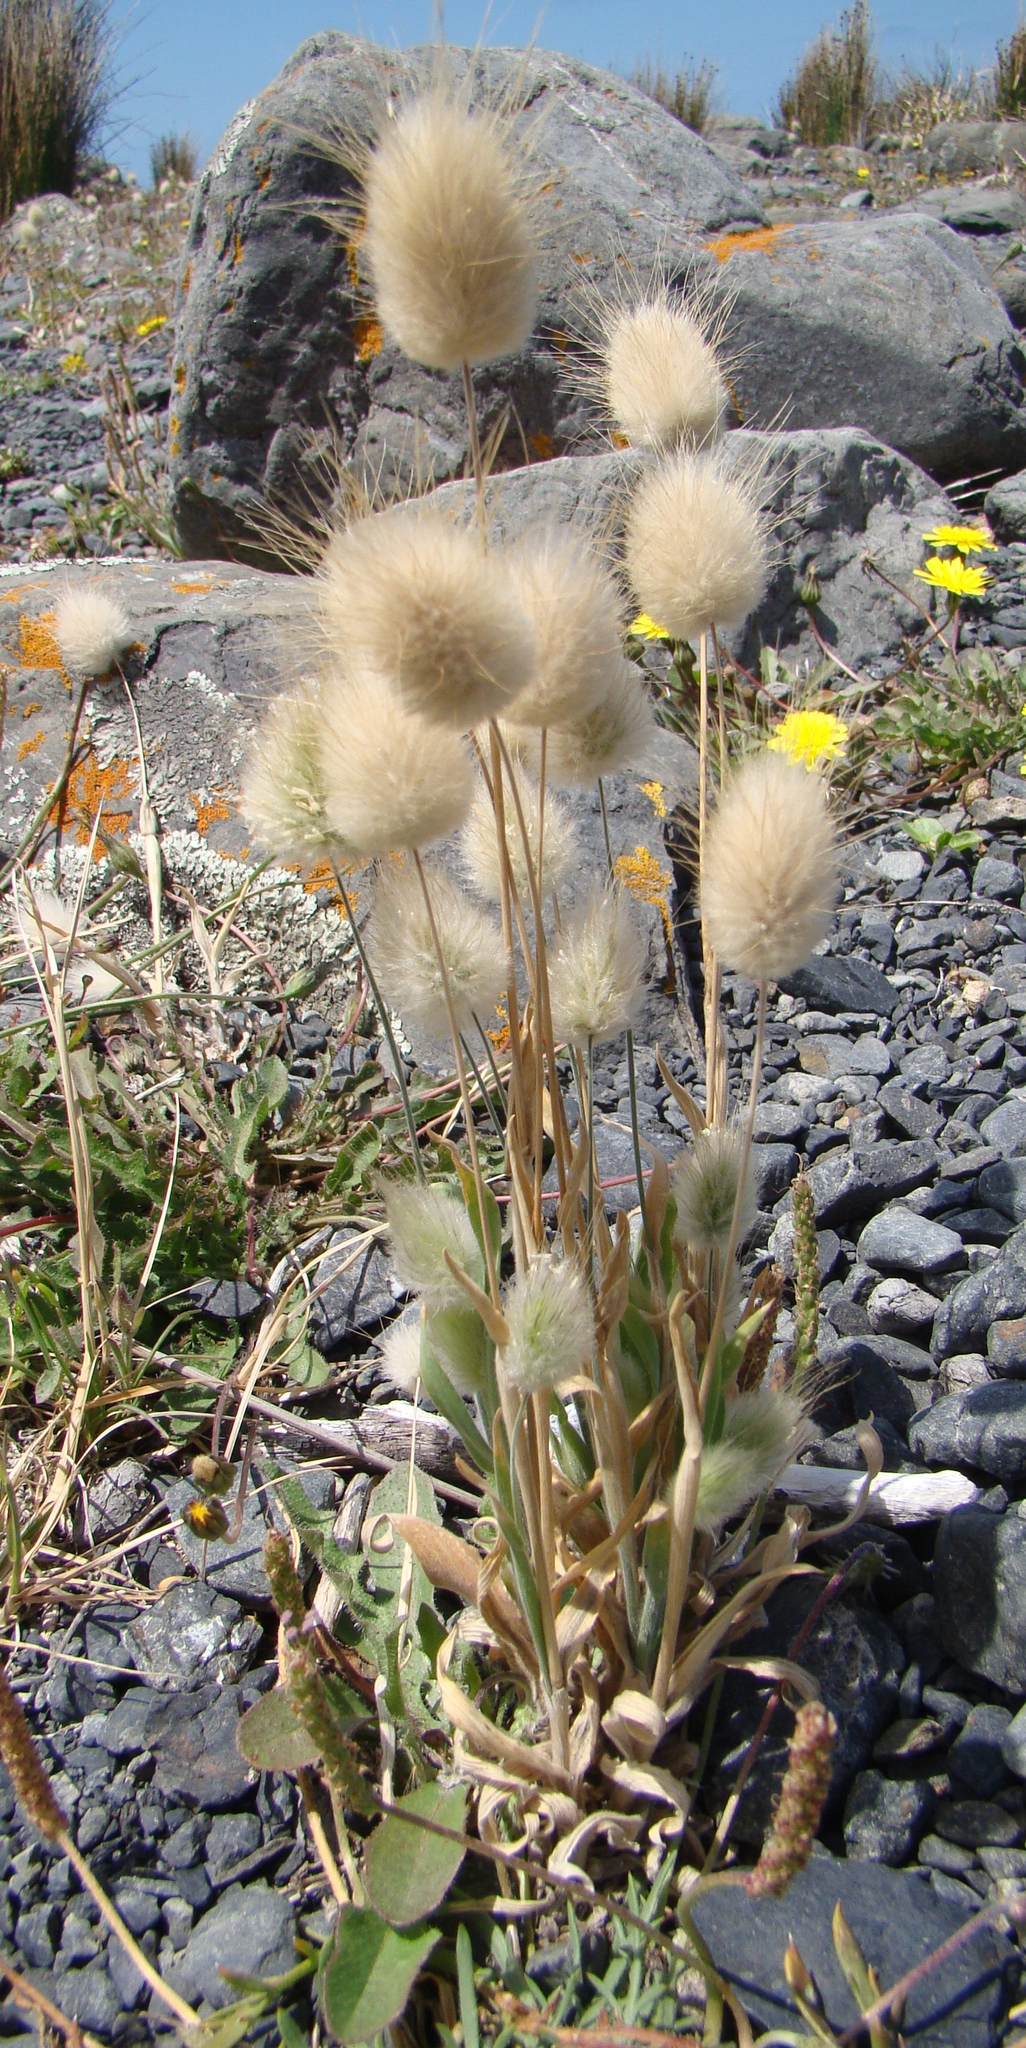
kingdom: Plantae
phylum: Tracheophyta
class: Liliopsida
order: Poales
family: Poaceae
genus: Lagurus
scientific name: Lagurus ovatus
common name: Hare's-tail
